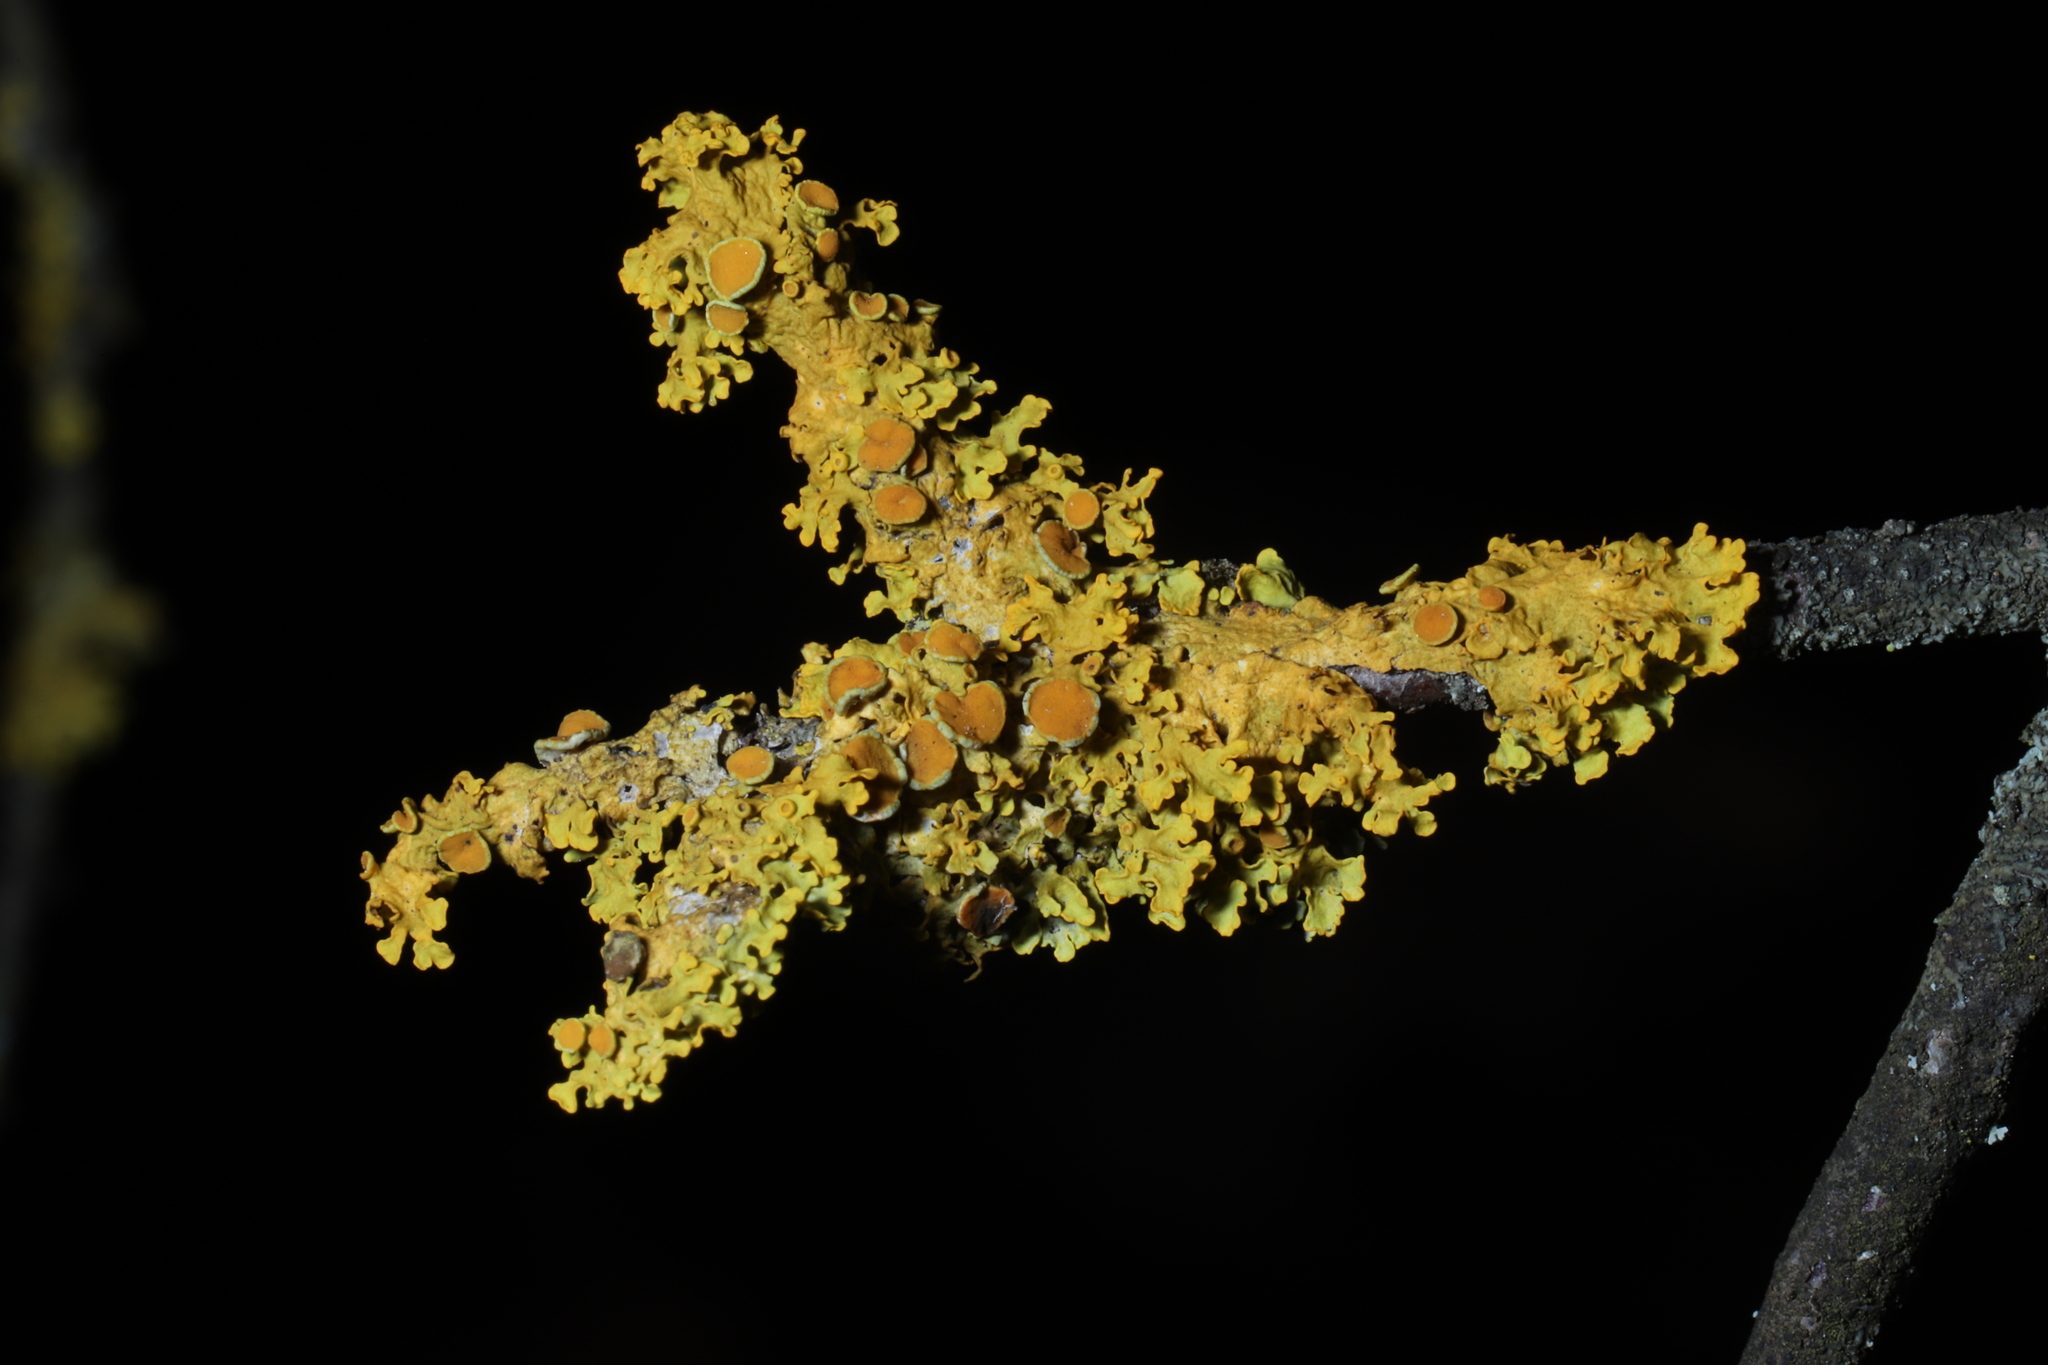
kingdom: Fungi
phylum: Ascomycota
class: Lecanoromycetes
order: Teloschistales
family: Teloschistaceae
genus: Xanthoria
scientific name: Xanthoria parietina
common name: Common orange lichen
